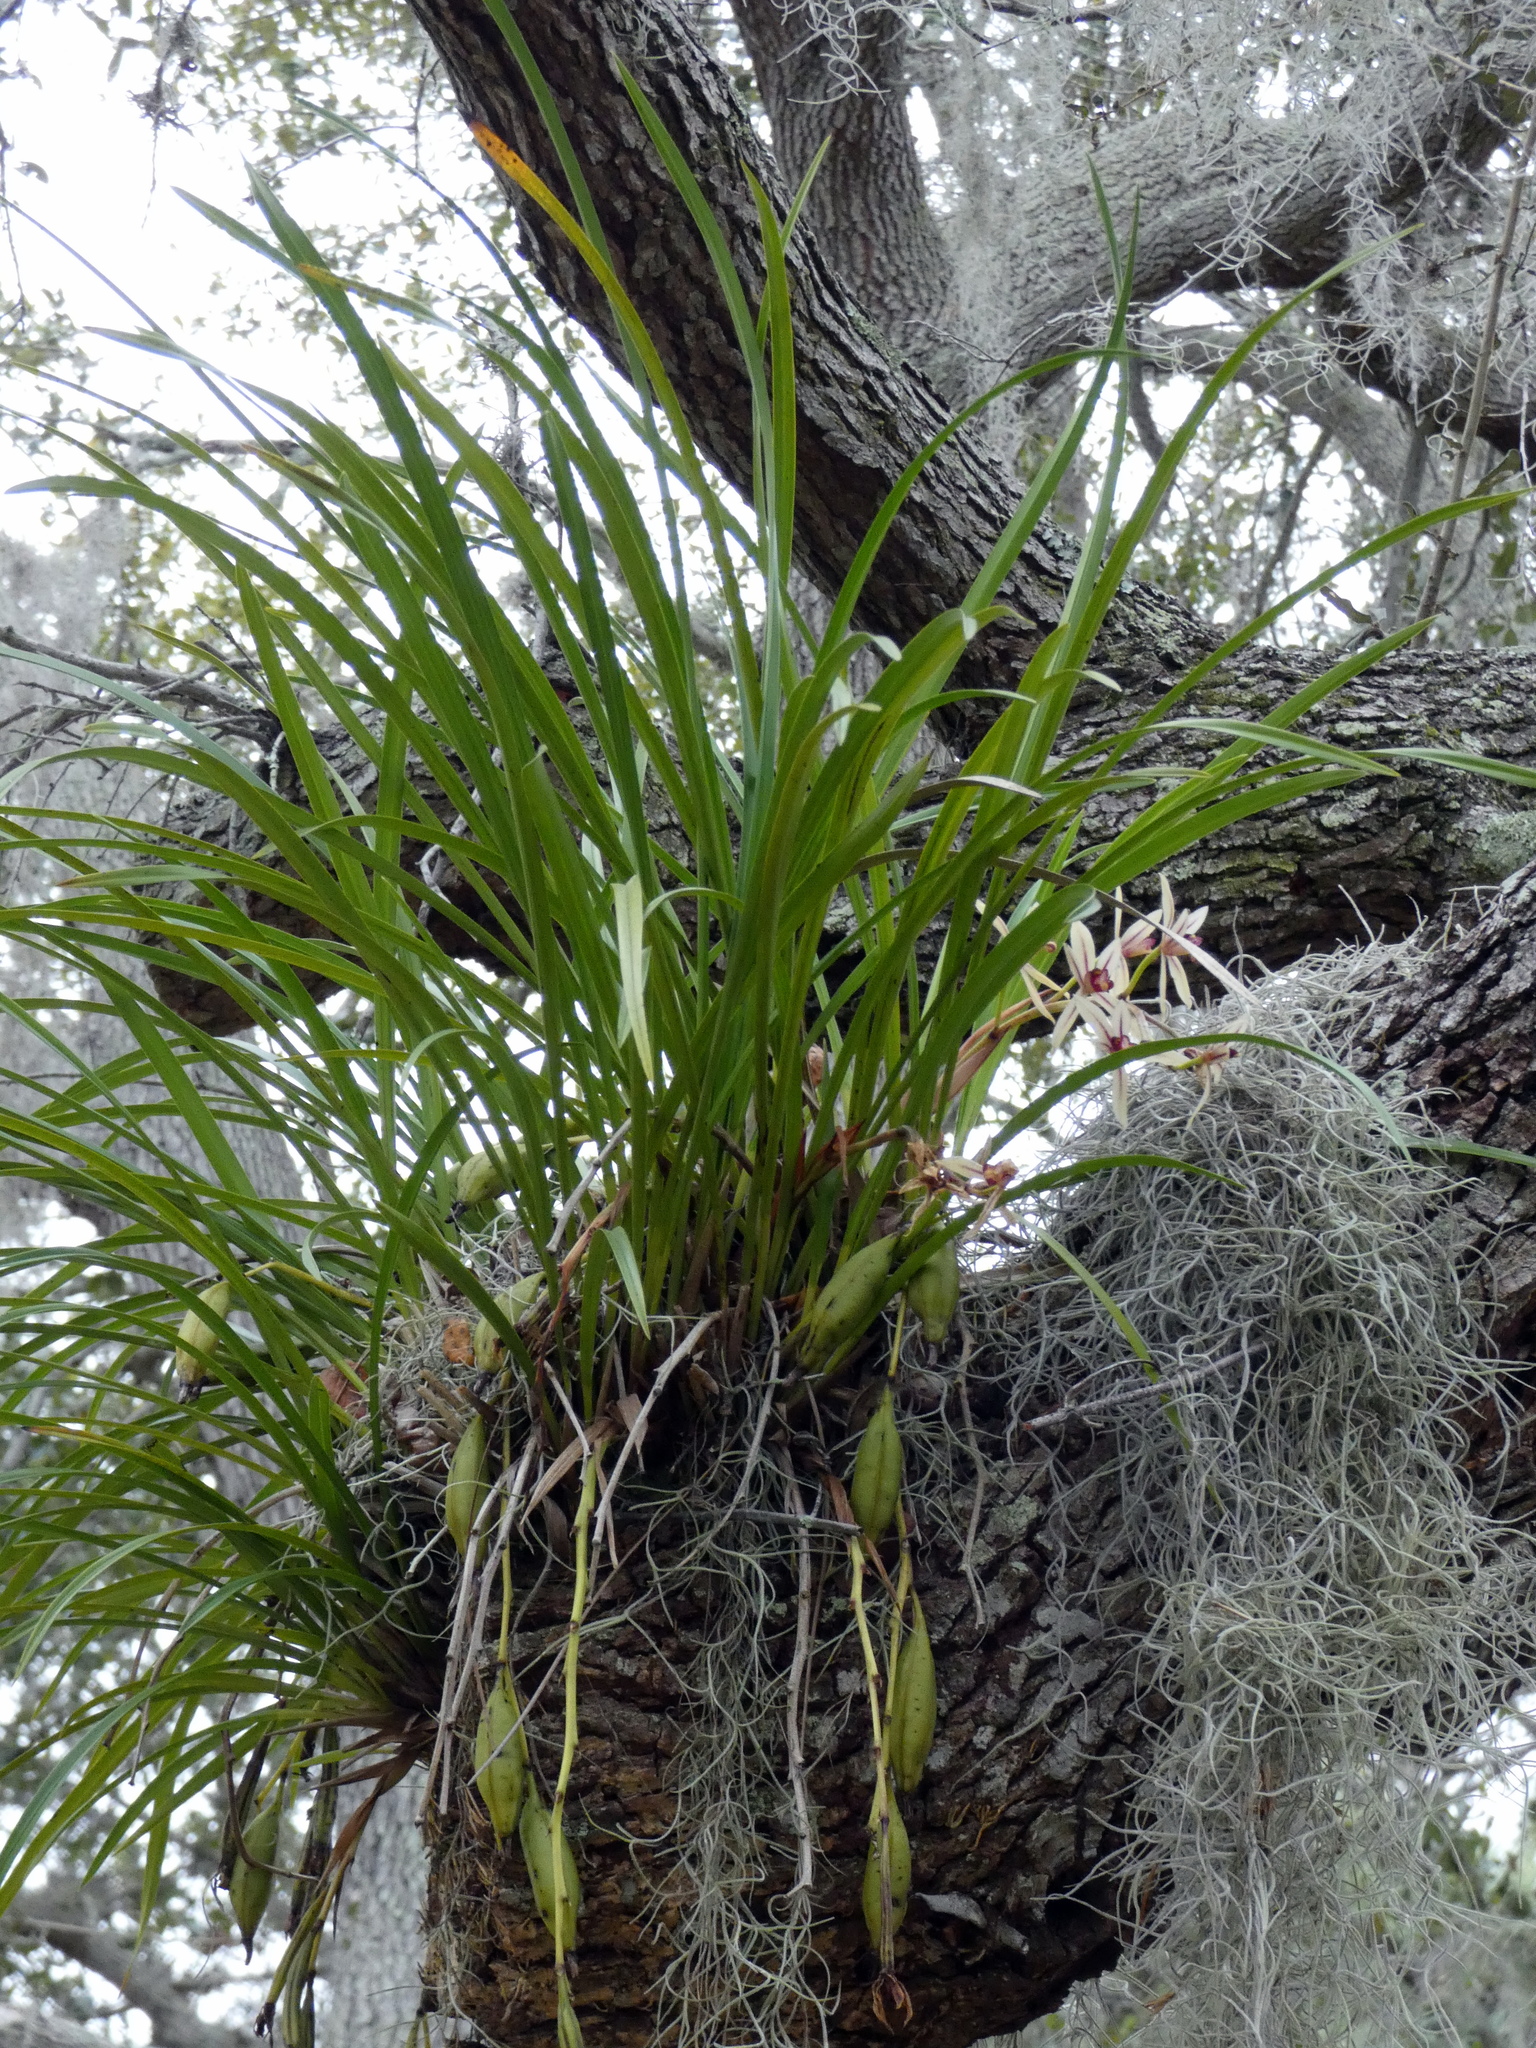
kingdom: Plantae
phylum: Tracheophyta
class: Liliopsida
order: Asparagales
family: Orchidaceae
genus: Cymbidium
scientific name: Cymbidium dayanum
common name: Orchid
